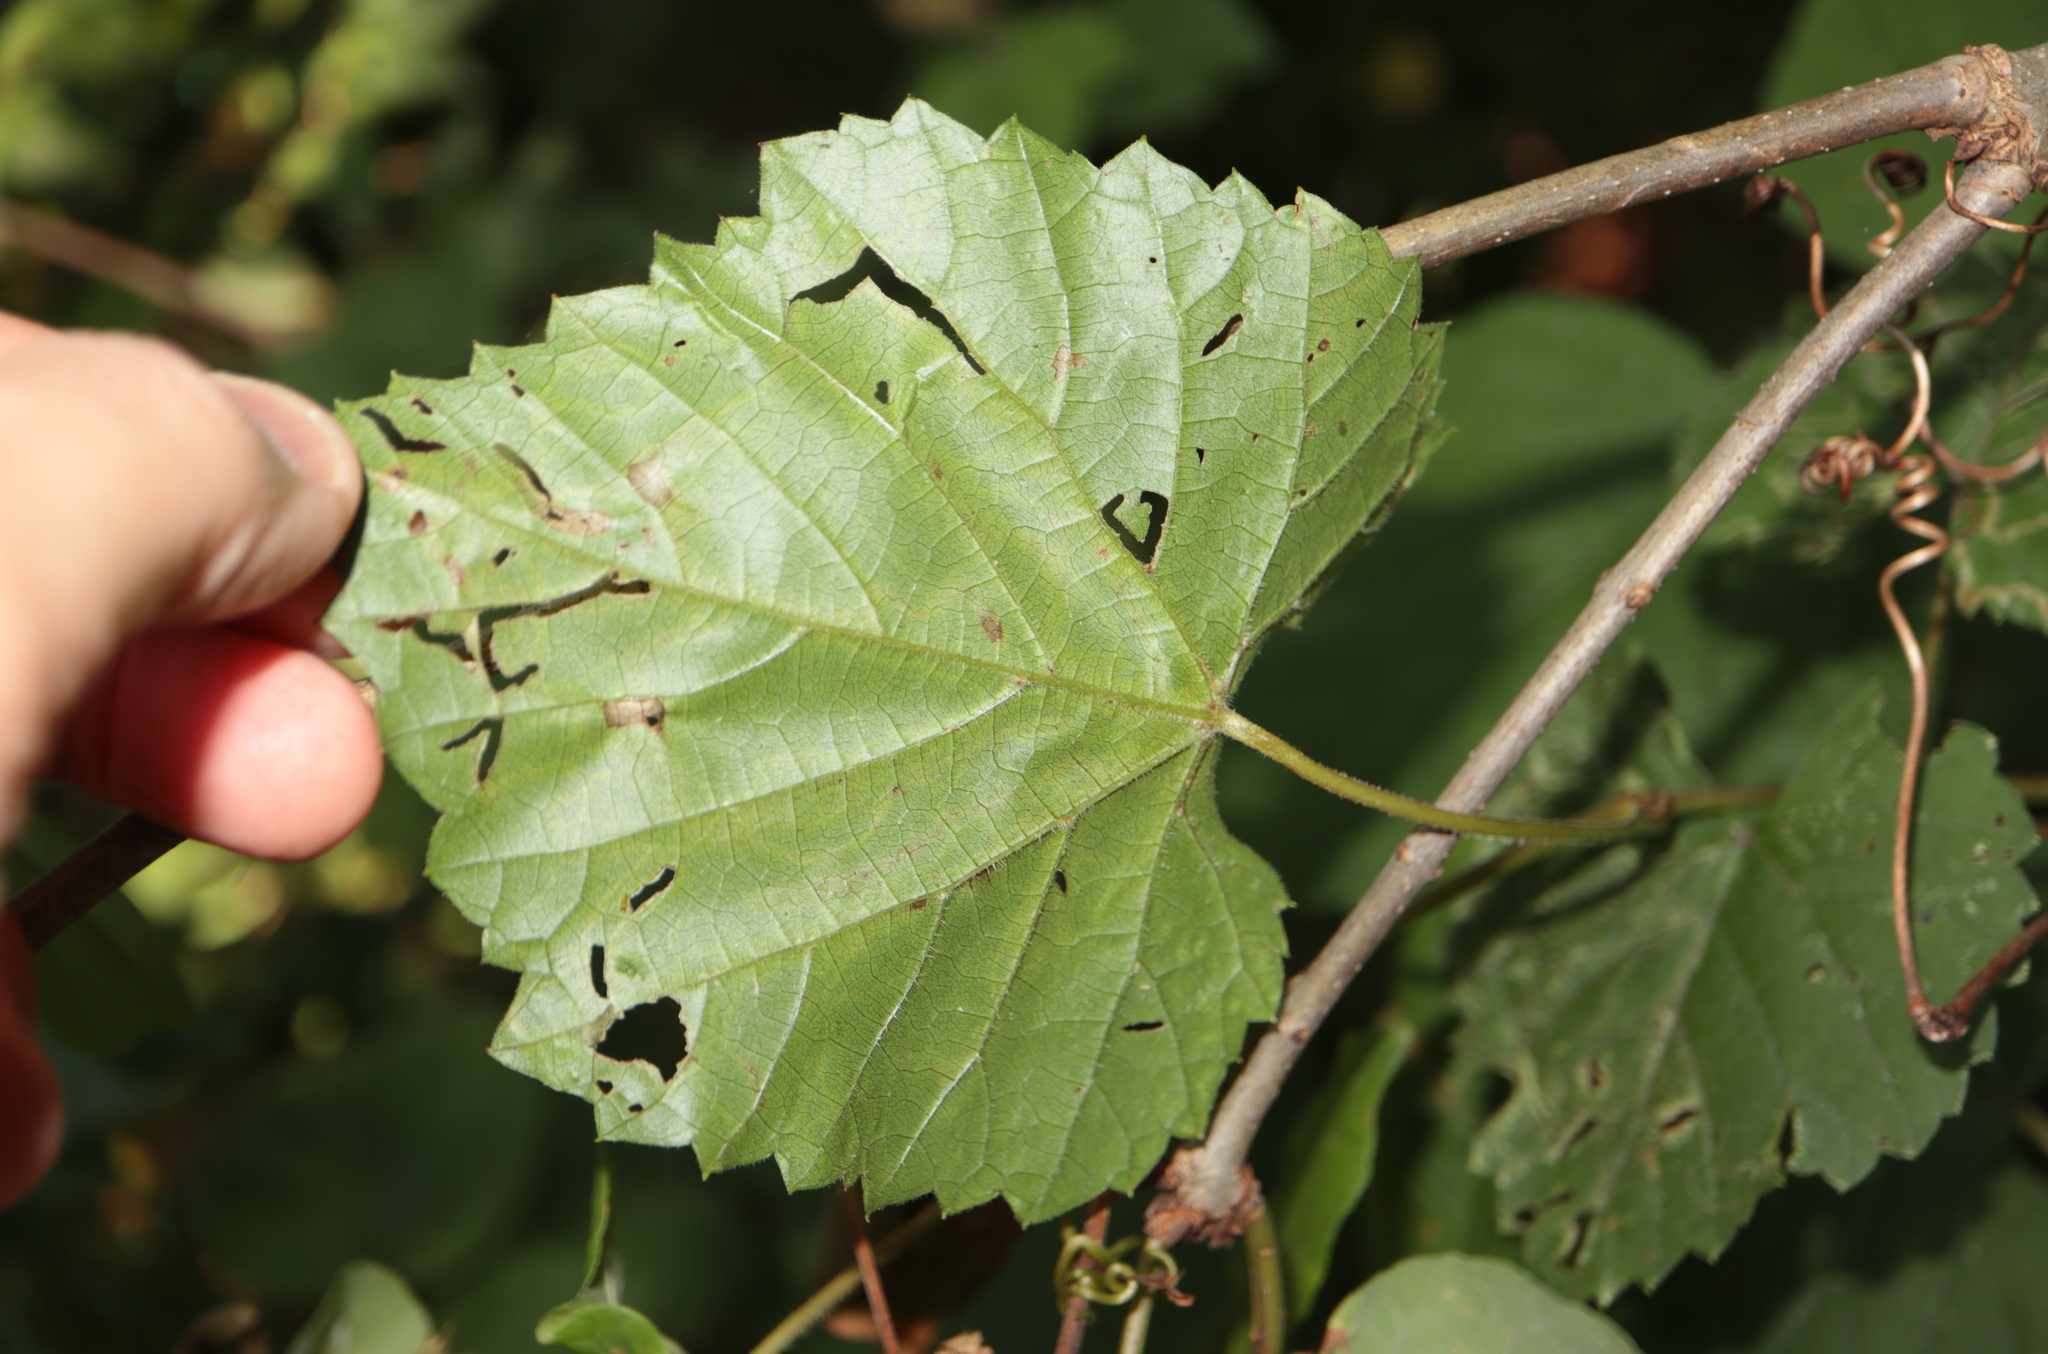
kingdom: Animalia
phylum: Arthropoda
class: Insecta
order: Lepidoptera
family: Gracillariidae
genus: Phyllocnistis
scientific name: Phyllocnistis vitifoliella
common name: Grape leaf-miner moth
